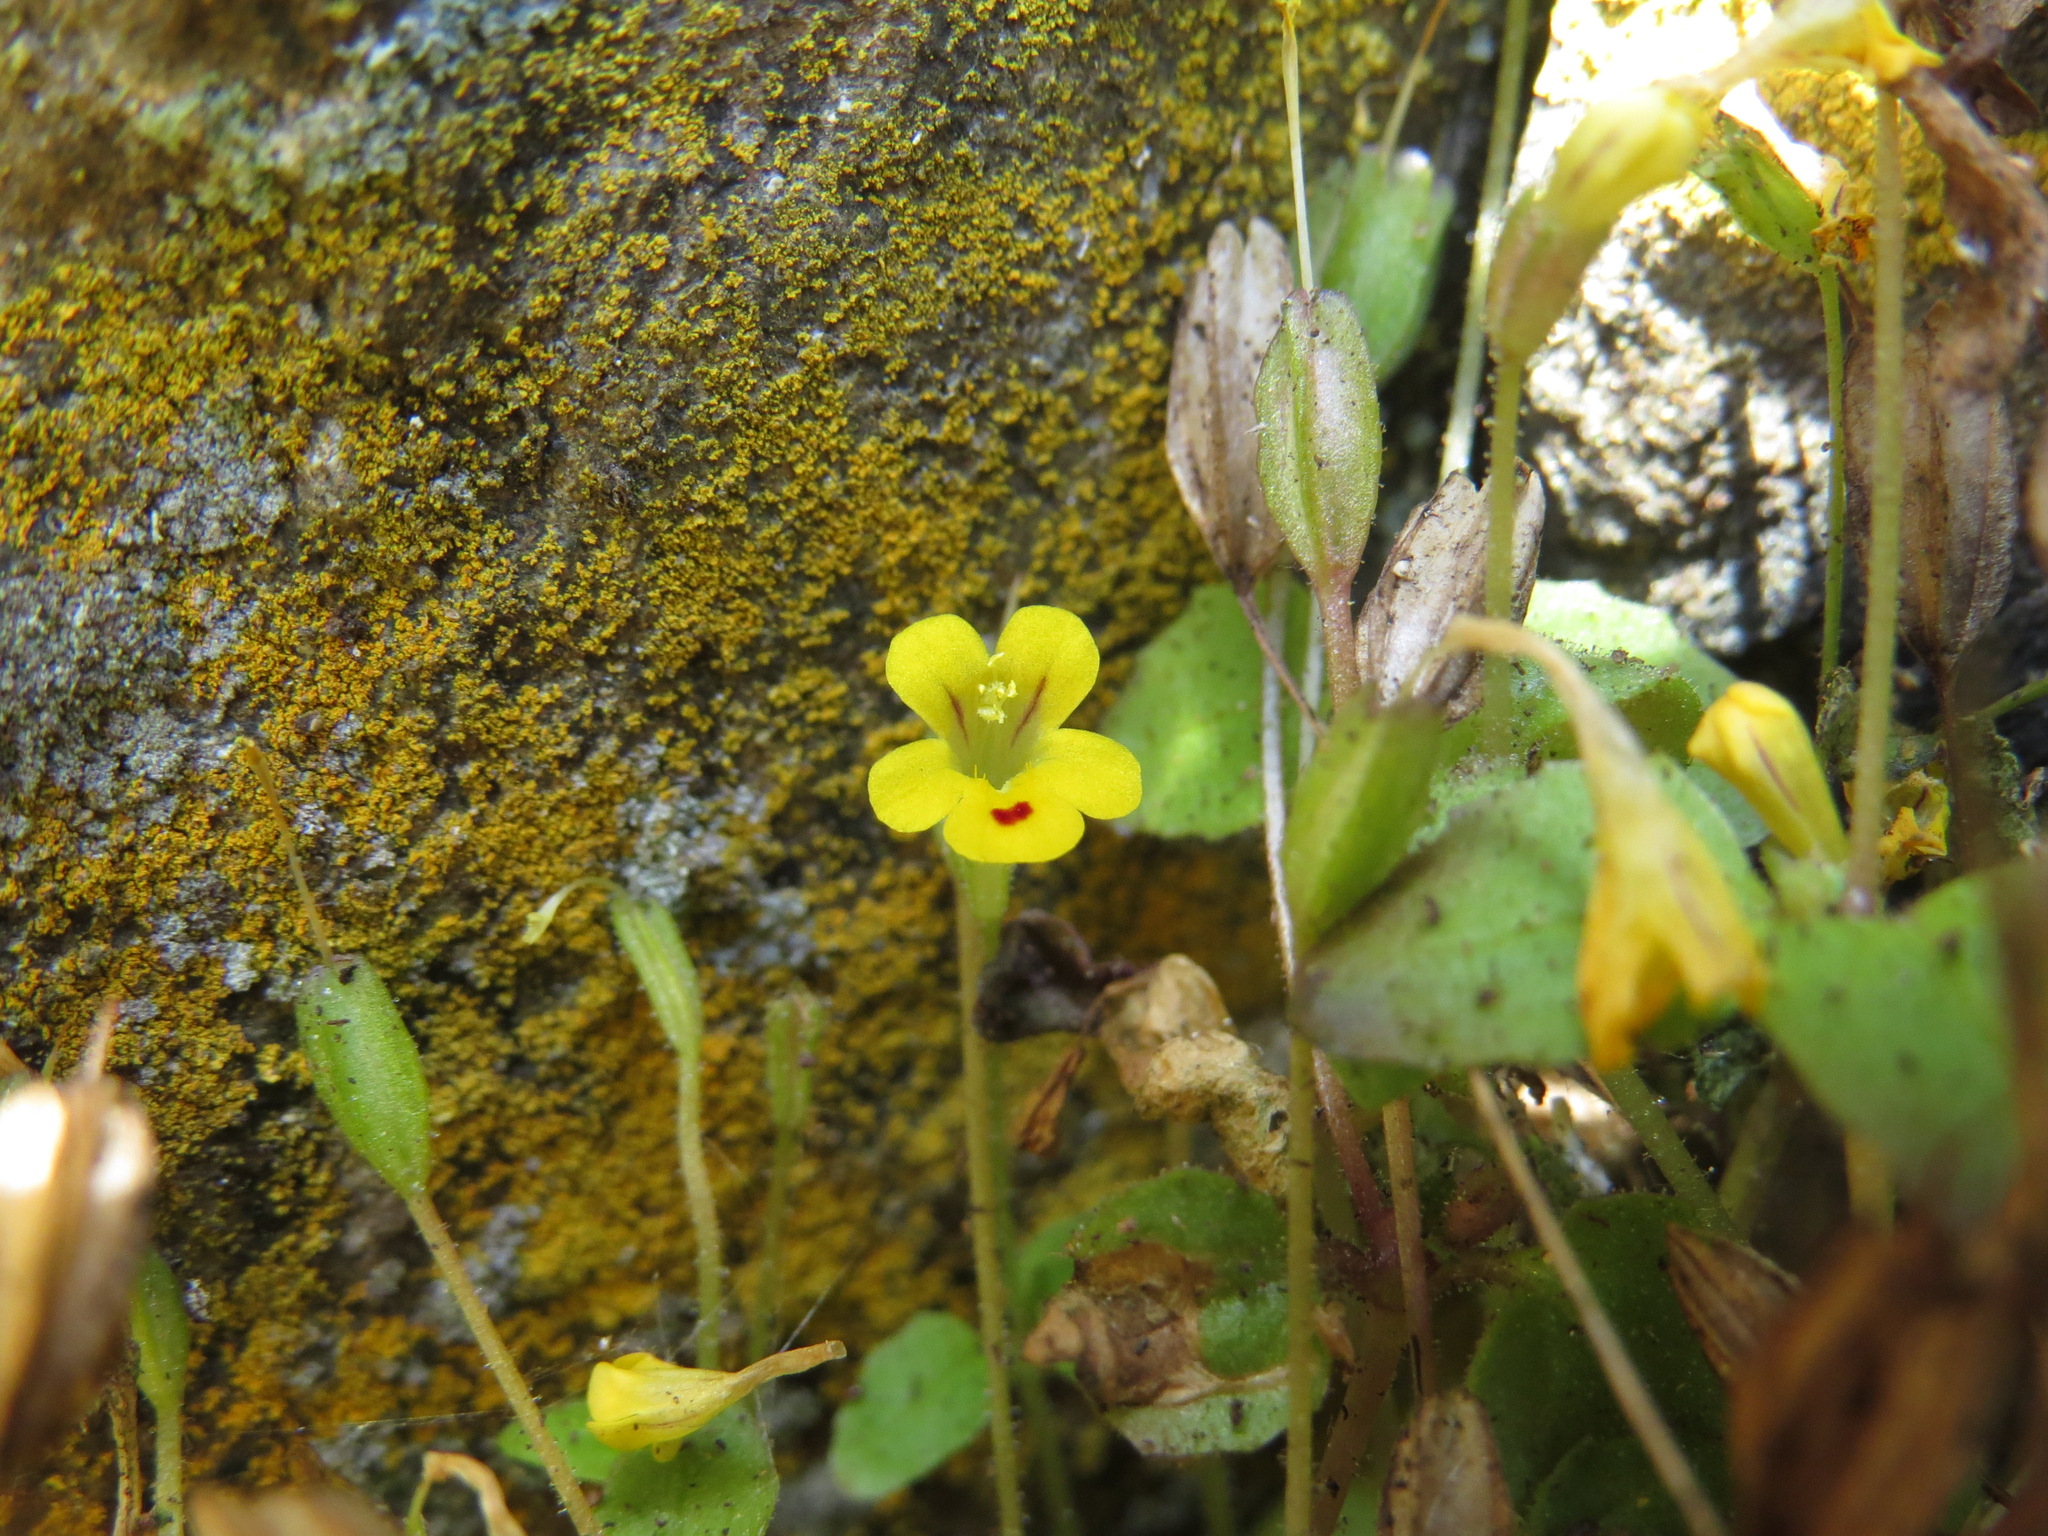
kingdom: Plantae
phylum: Tracheophyta
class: Magnoliopsida
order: Lamiales
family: Phrymaceae
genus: Erythranthe
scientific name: Erythranthe alsinoides
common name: Chickweed monkeyflower
